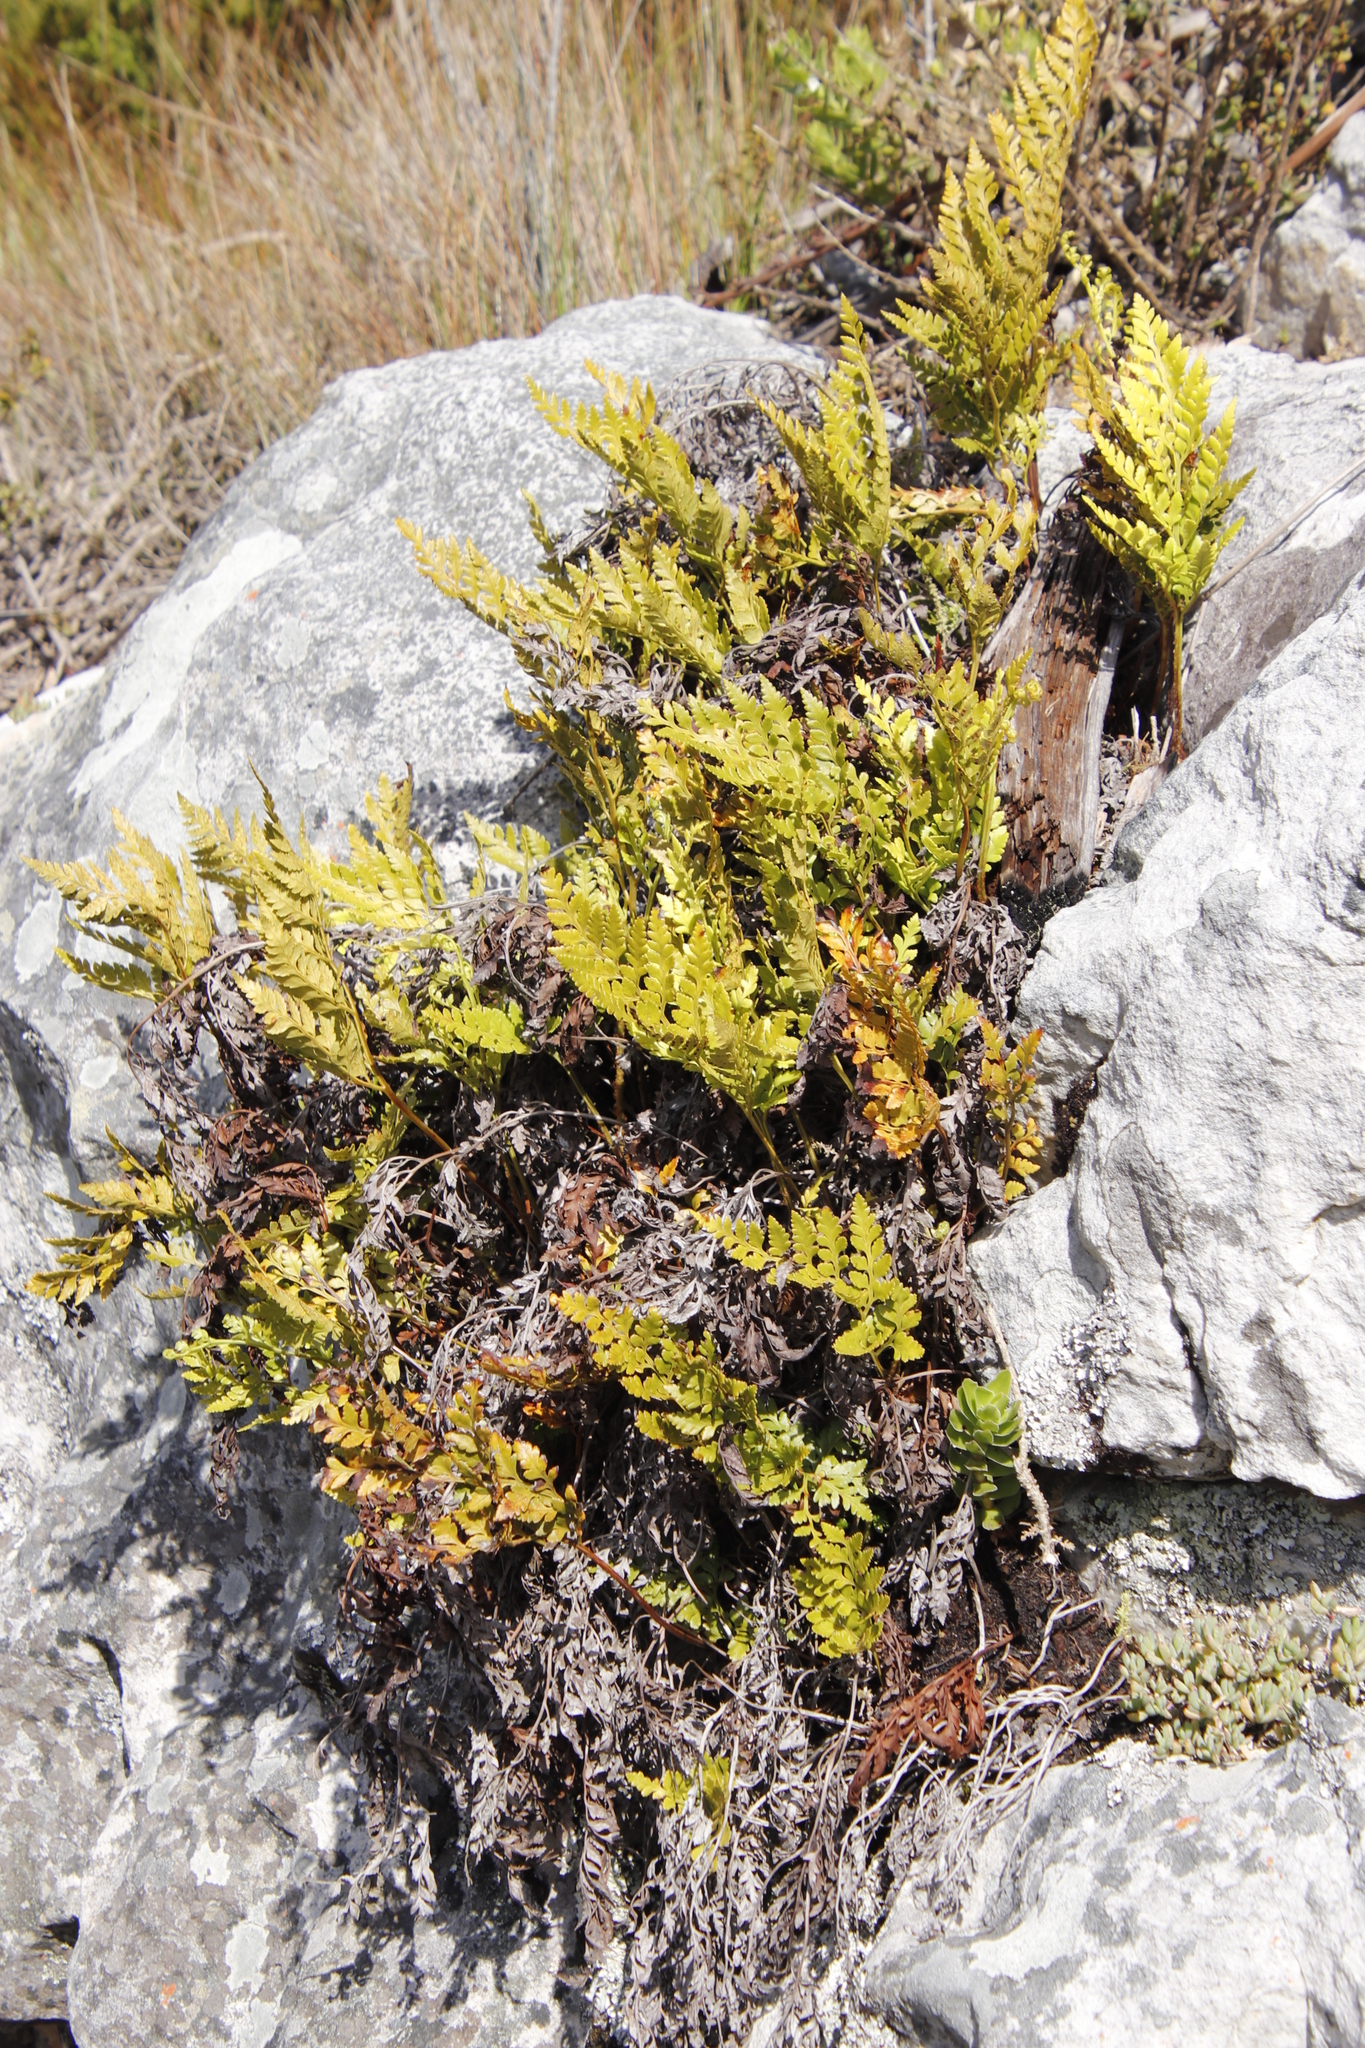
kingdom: Plantae
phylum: Tracheophyta
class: Polypodiopsida
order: Polypodiales
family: Dryopteridaceae
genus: Rumohra
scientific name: Rumohra adiantiformis
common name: Leather fern
